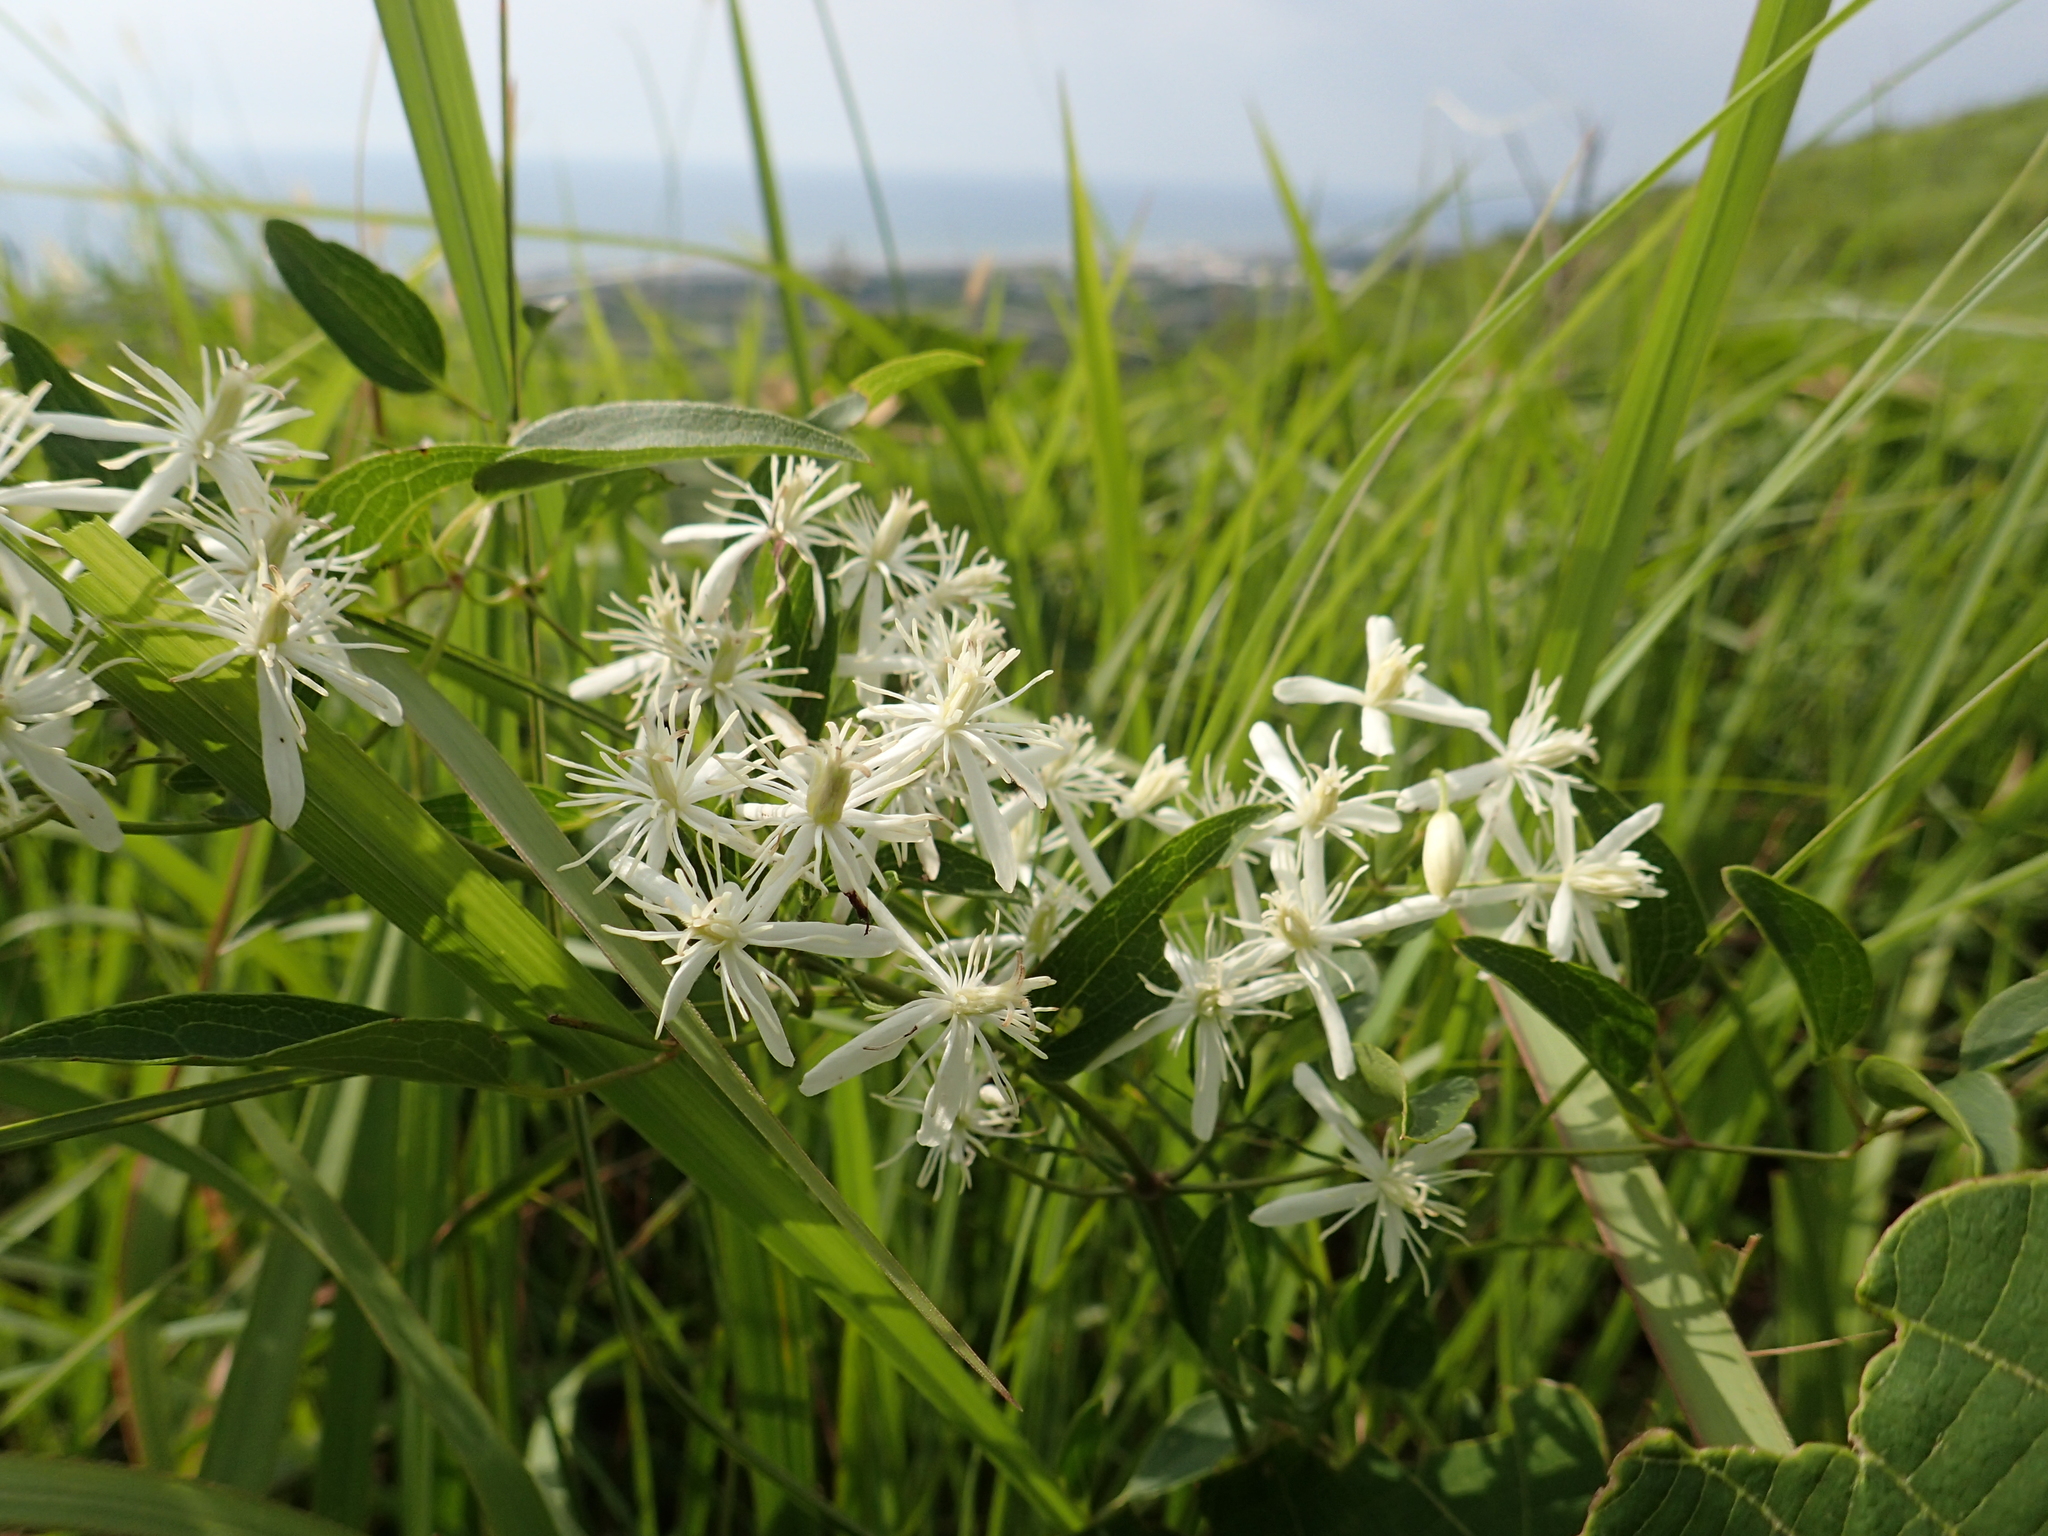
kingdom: Plantae
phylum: Tracheophyta
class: Magnoliopsida
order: Ranunculales
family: Ranunculaceae
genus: Clematis
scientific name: Clematis chinensis
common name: Chinese clematis
